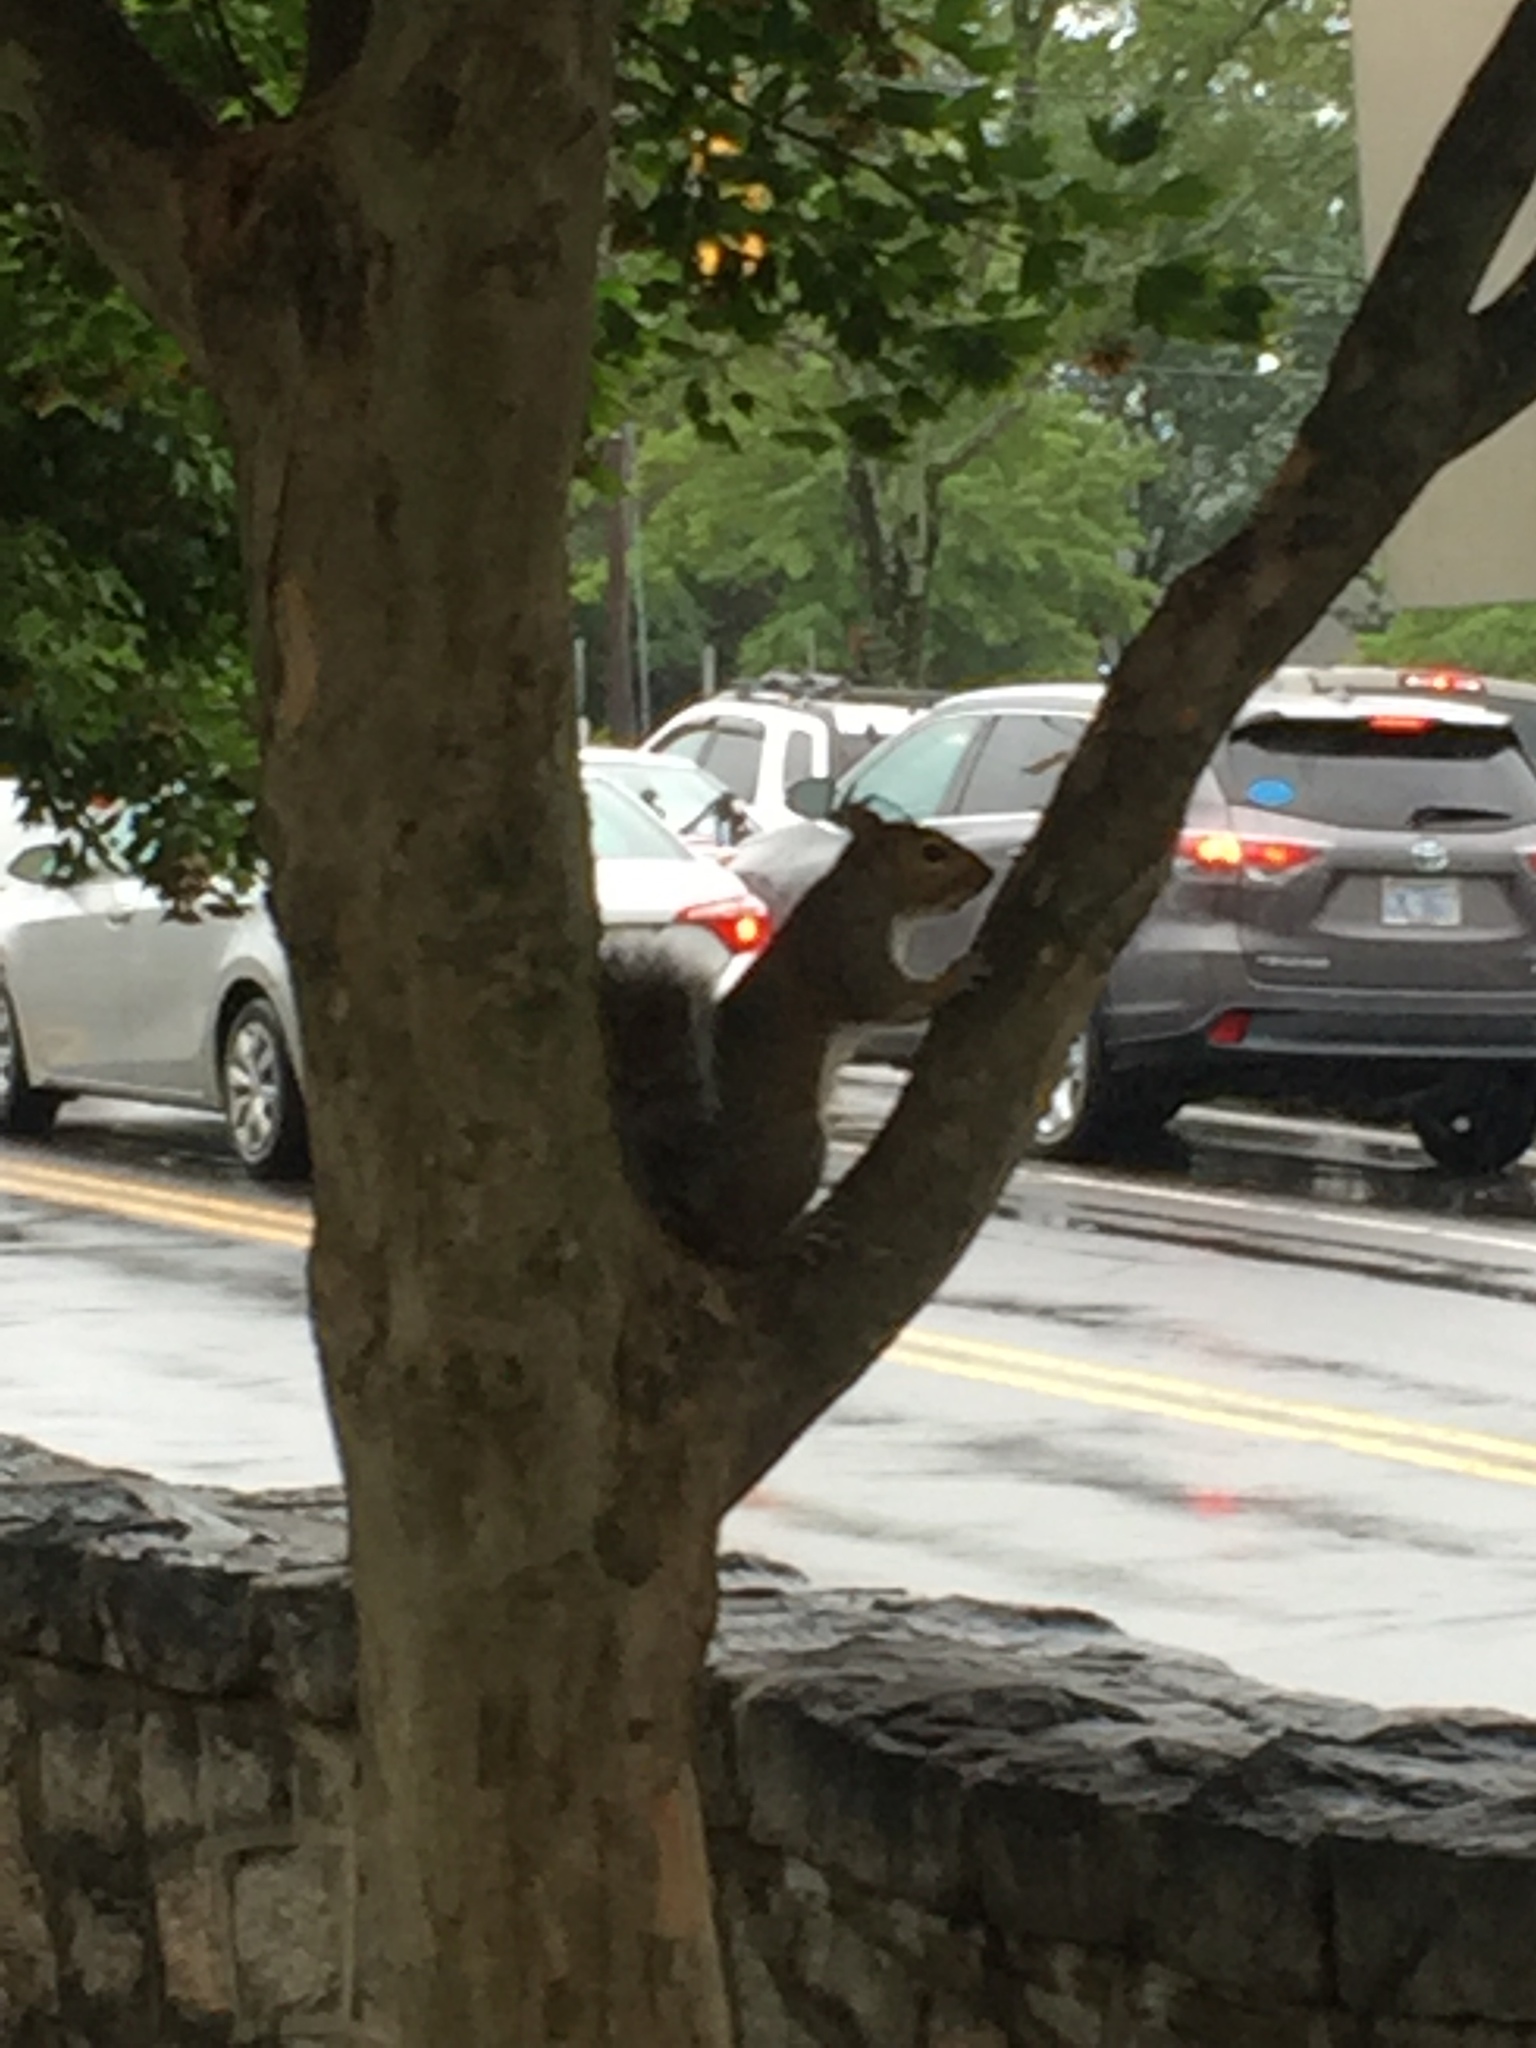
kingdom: Animalia
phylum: Chordata
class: Mammalia
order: Rodentia
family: Sciuridae
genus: Sciurus
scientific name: Sciurus carolinensis
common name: Eastern gray squirrel
